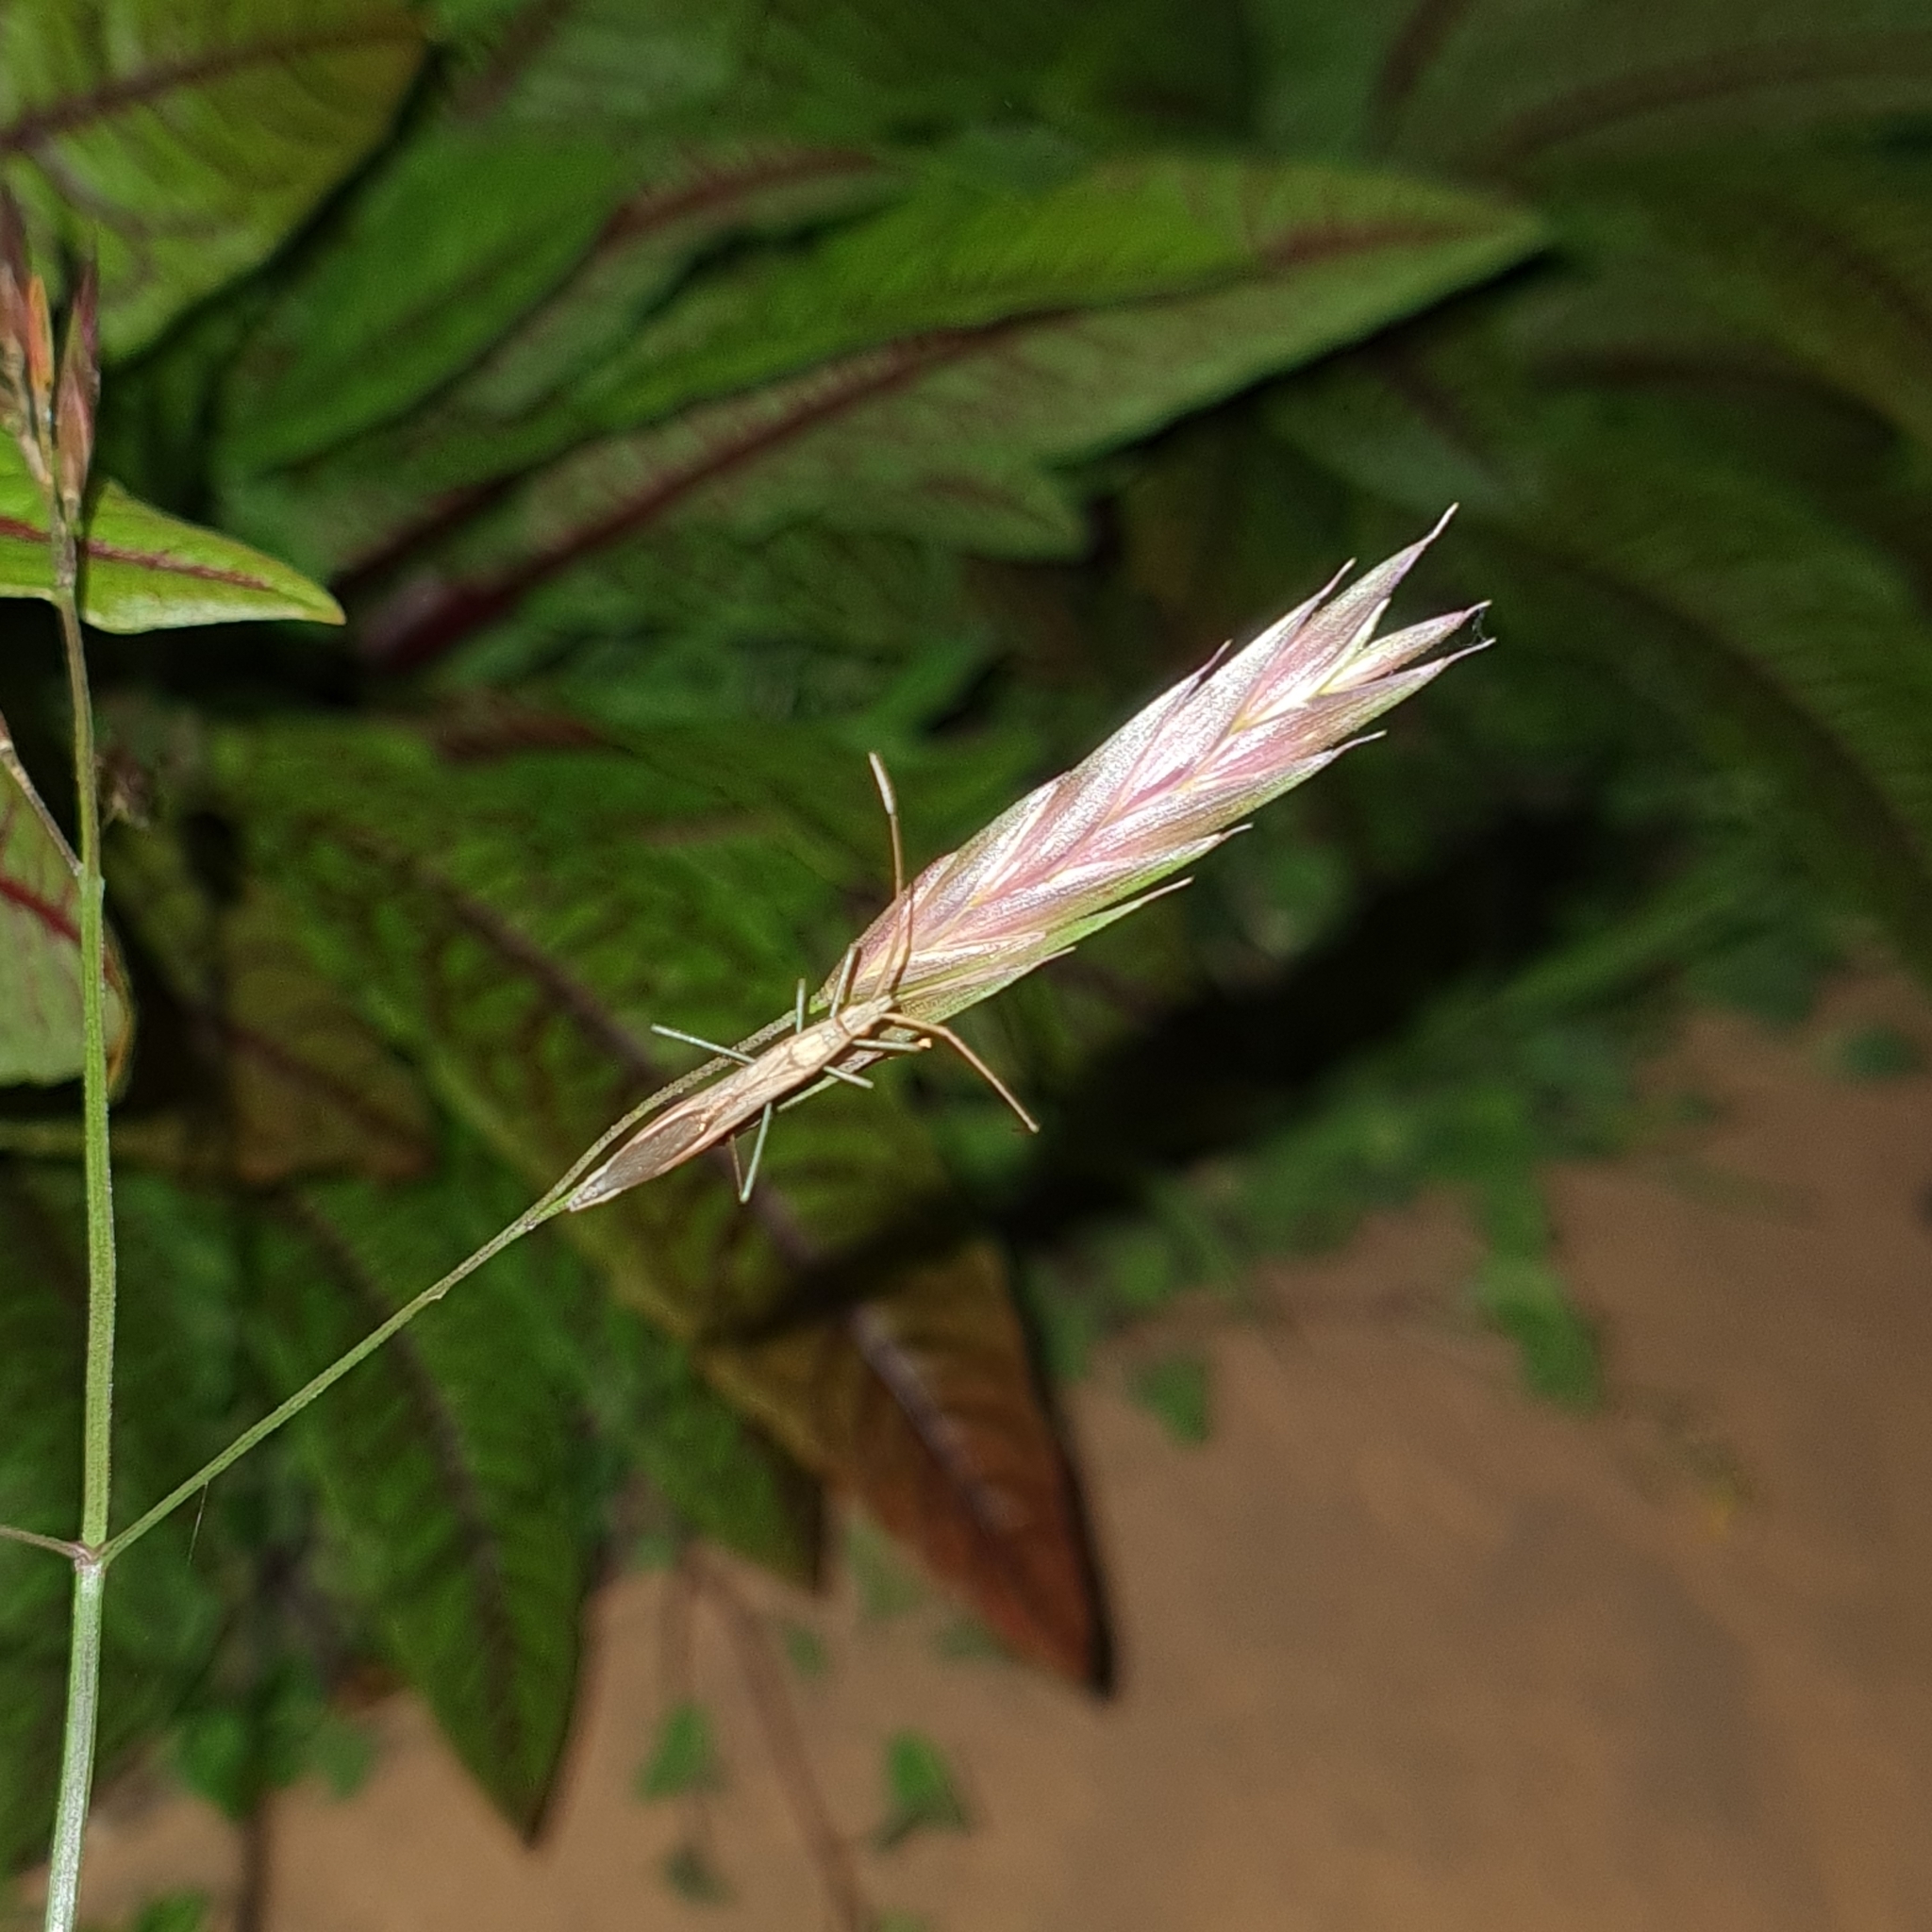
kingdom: Animalia
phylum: Arthropoda
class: Insecta
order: Hemiptera
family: Alydidae
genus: Mutusca
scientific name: Mutusca brevicornis
